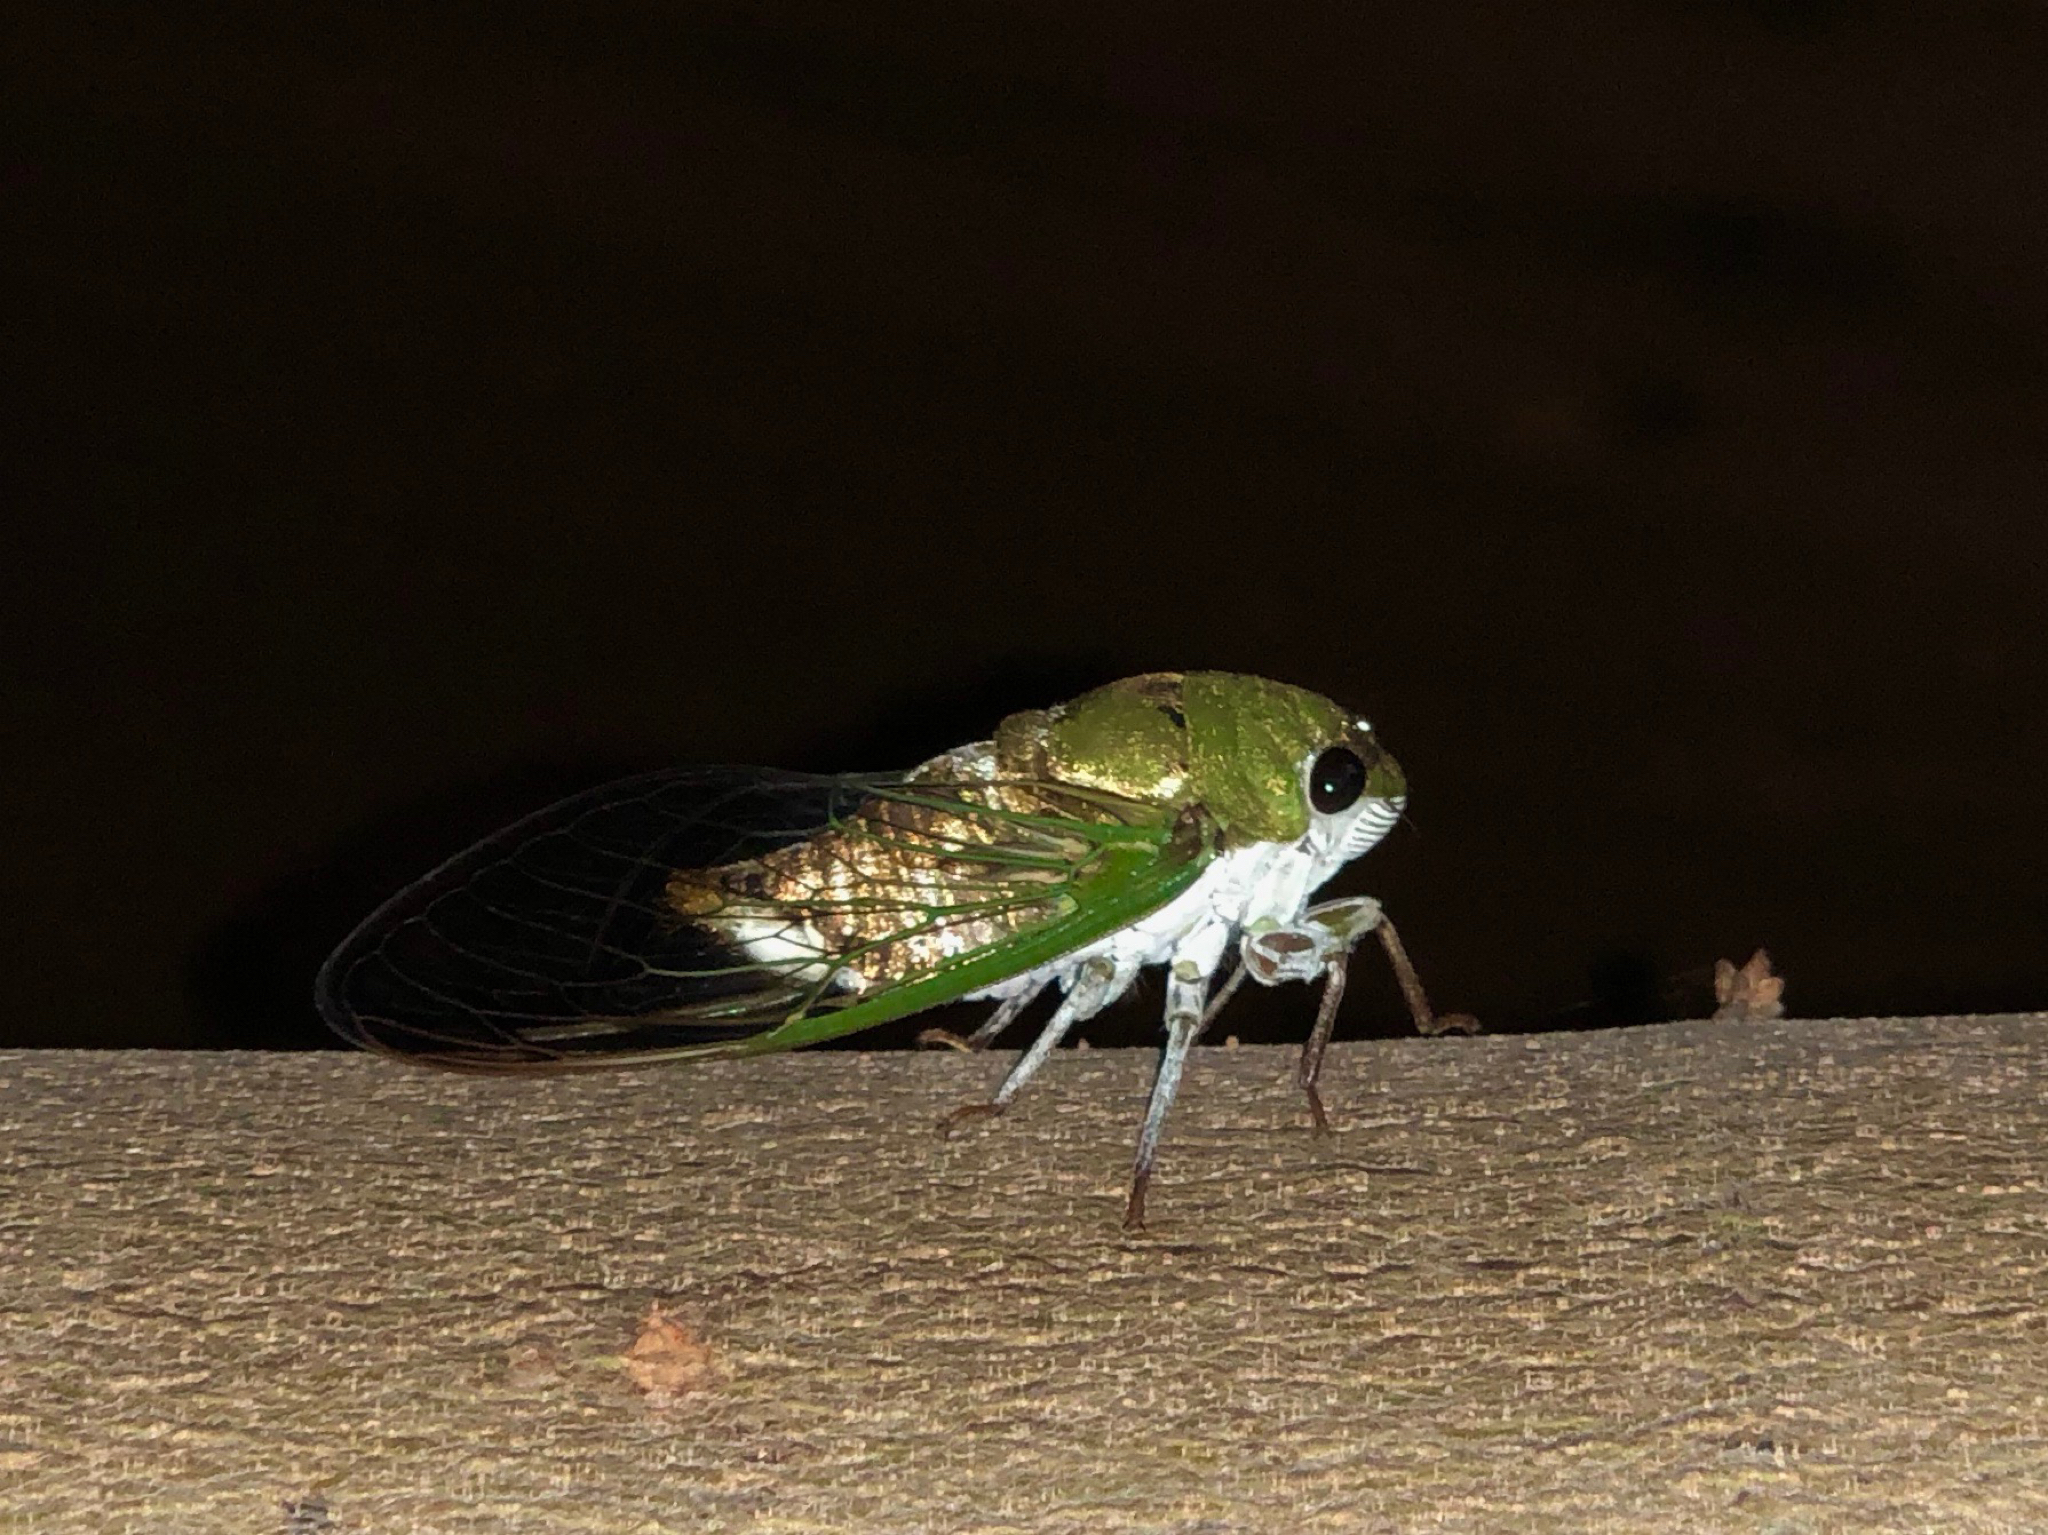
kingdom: Animalia
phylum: Arthropoda
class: Insecta
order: Hemiptera
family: Cicadidae
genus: Neotibicen
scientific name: Neotibicen superbus
